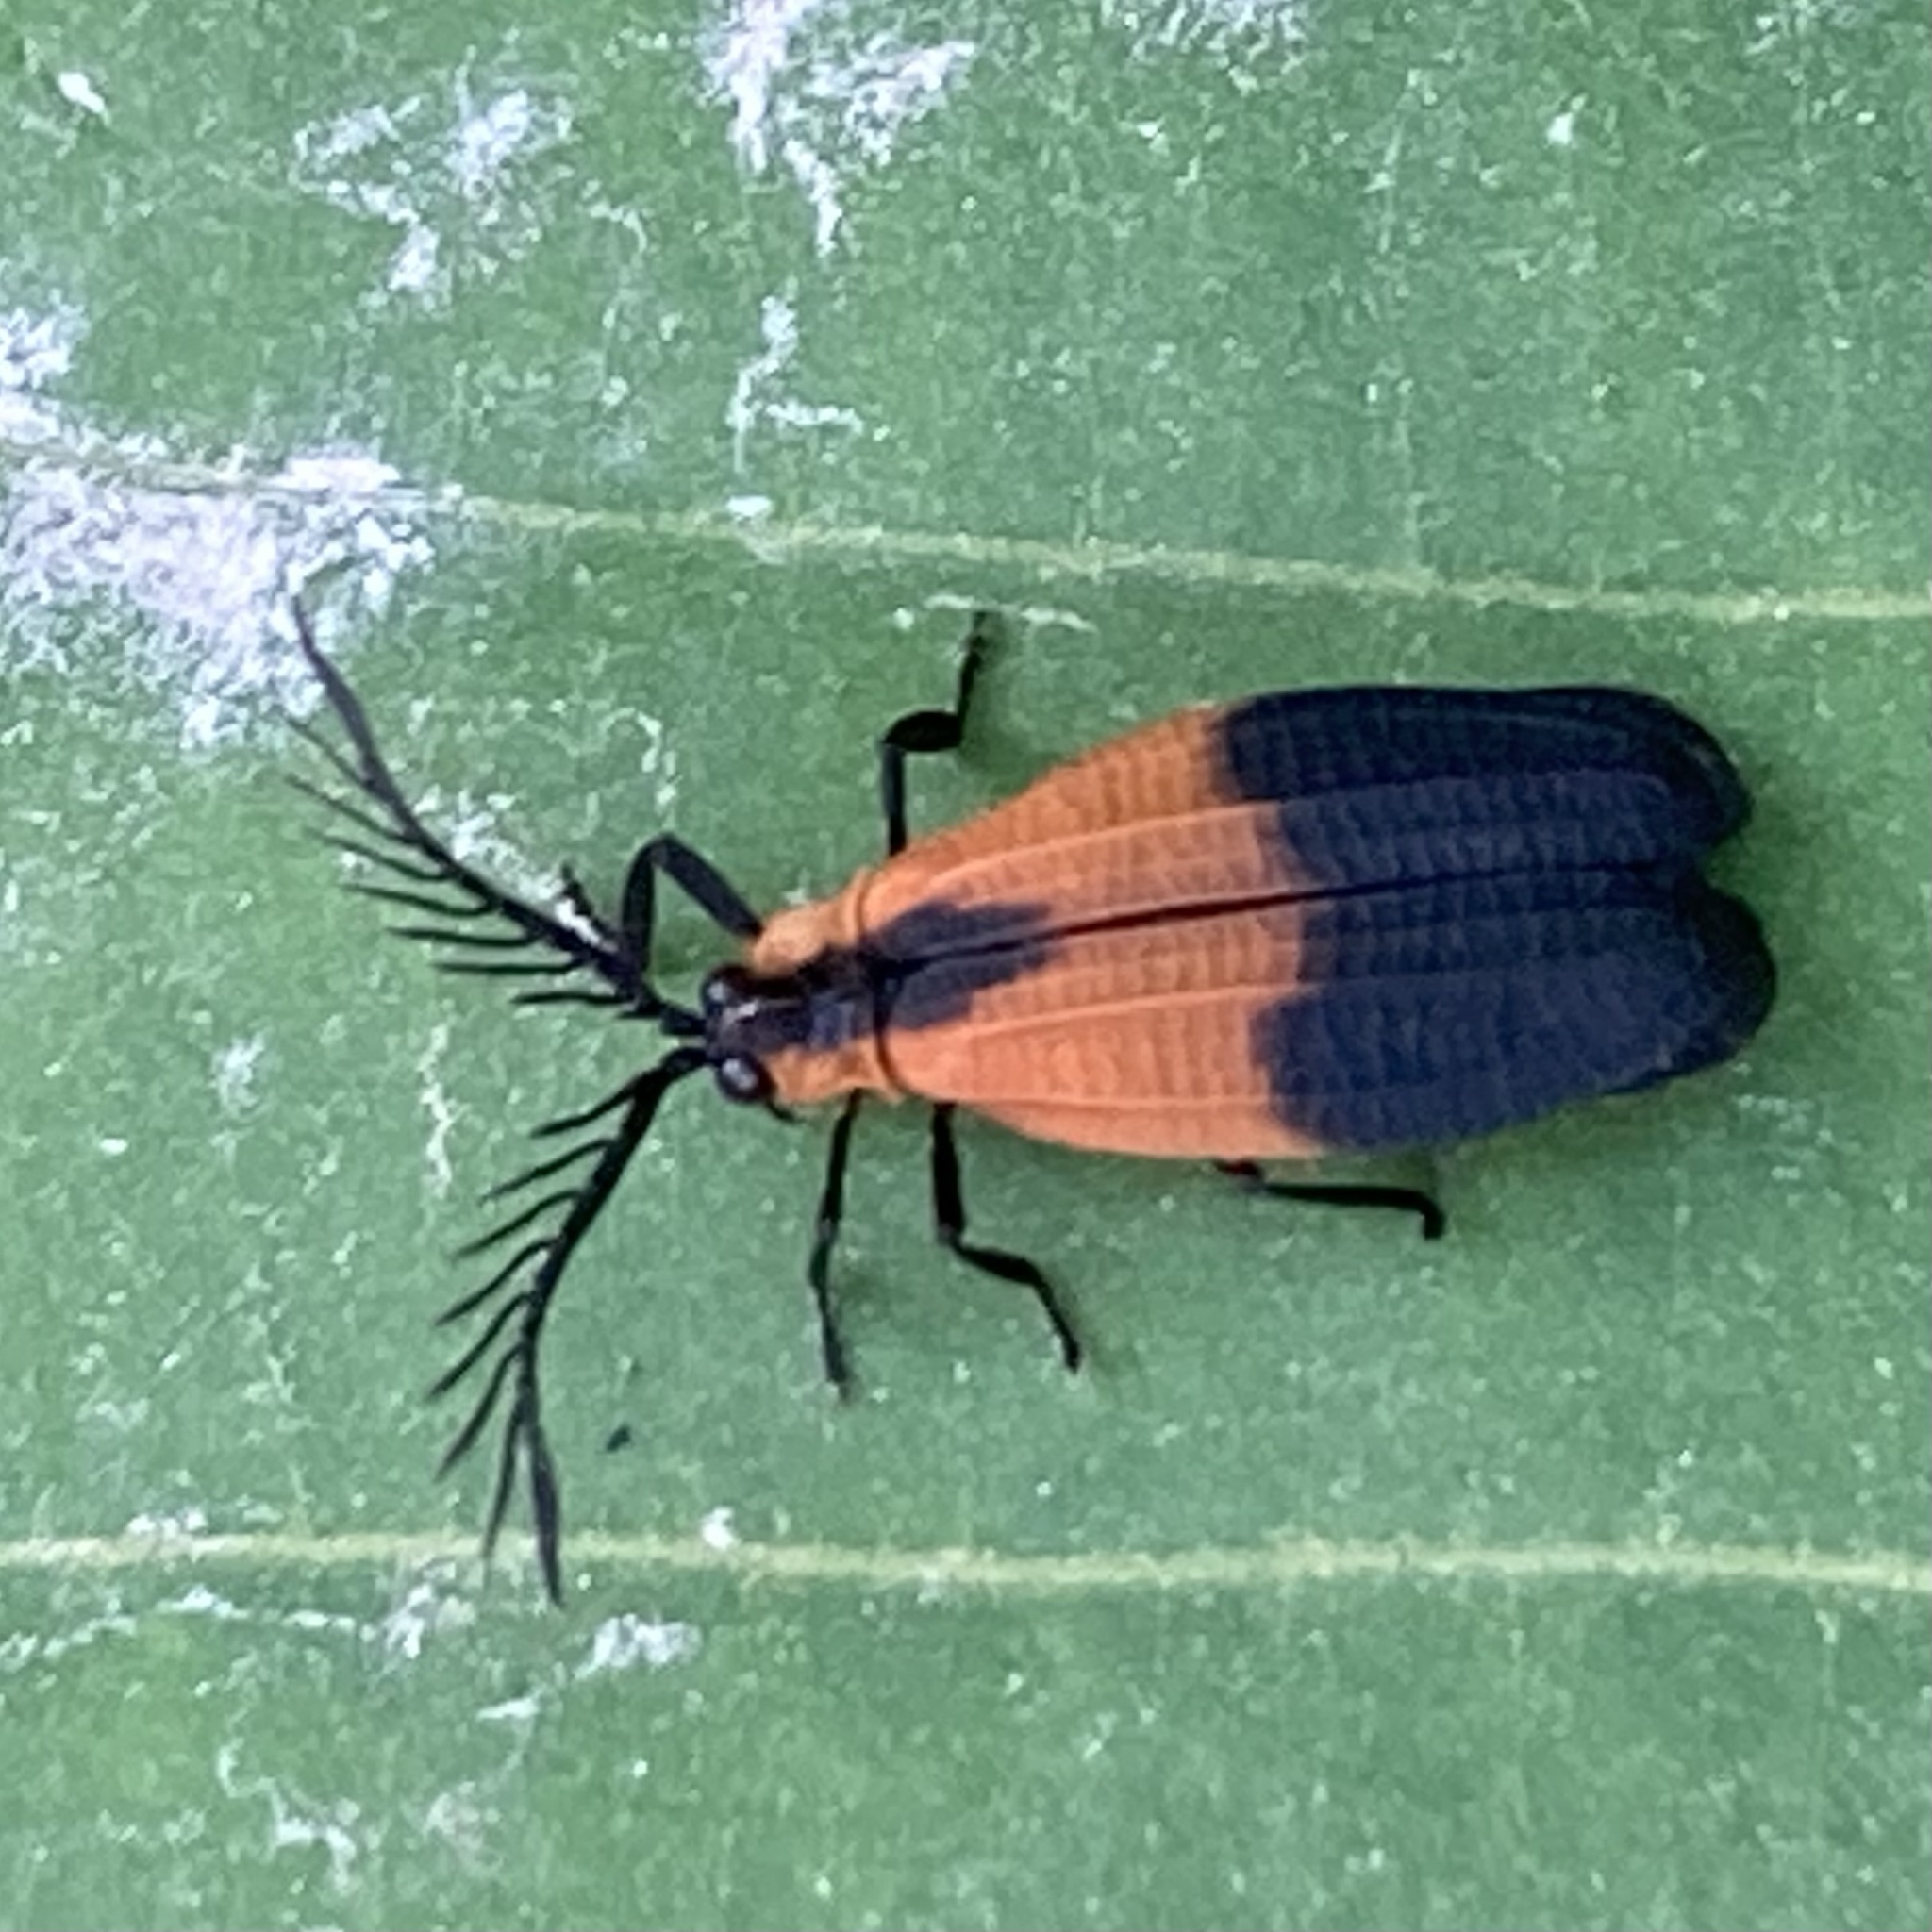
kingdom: Animalia
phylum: Arthropoda
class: Insecta
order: Coleoptera
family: Lycidae
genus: Caenia
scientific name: Caenia dimidiata
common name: Terminal net-winged beetle
